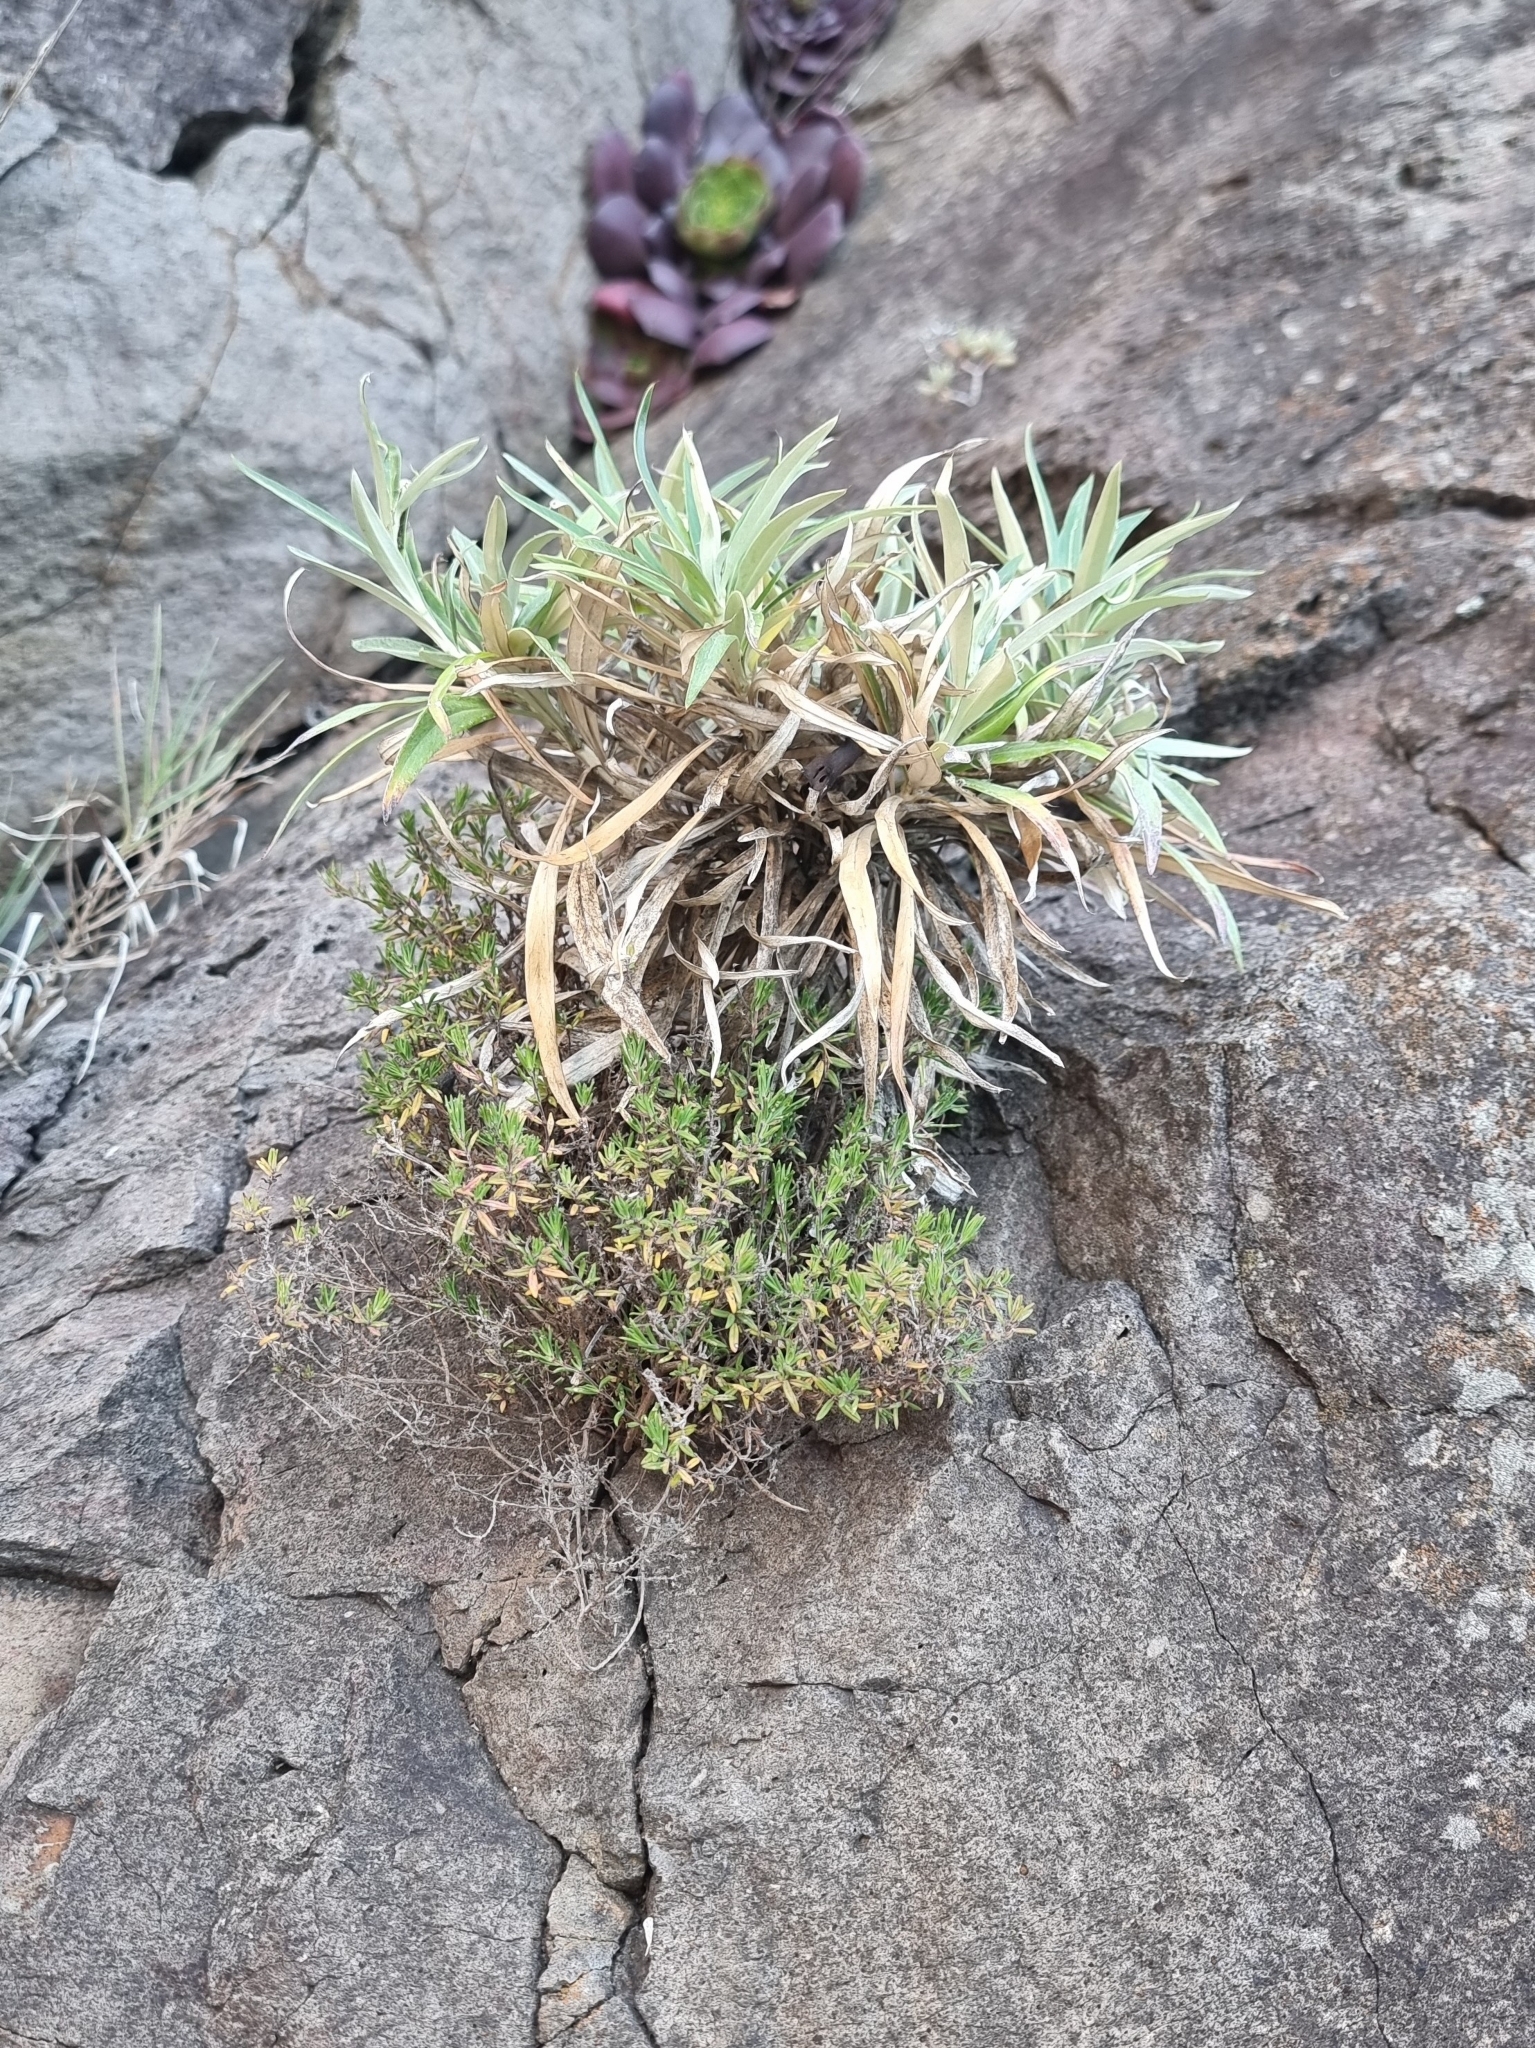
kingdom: Plantae
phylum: Tracheophyta
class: Magnoliopsida
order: Lamiales
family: Lamiaceae
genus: Micromeria
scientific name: Micromeria maderensis
